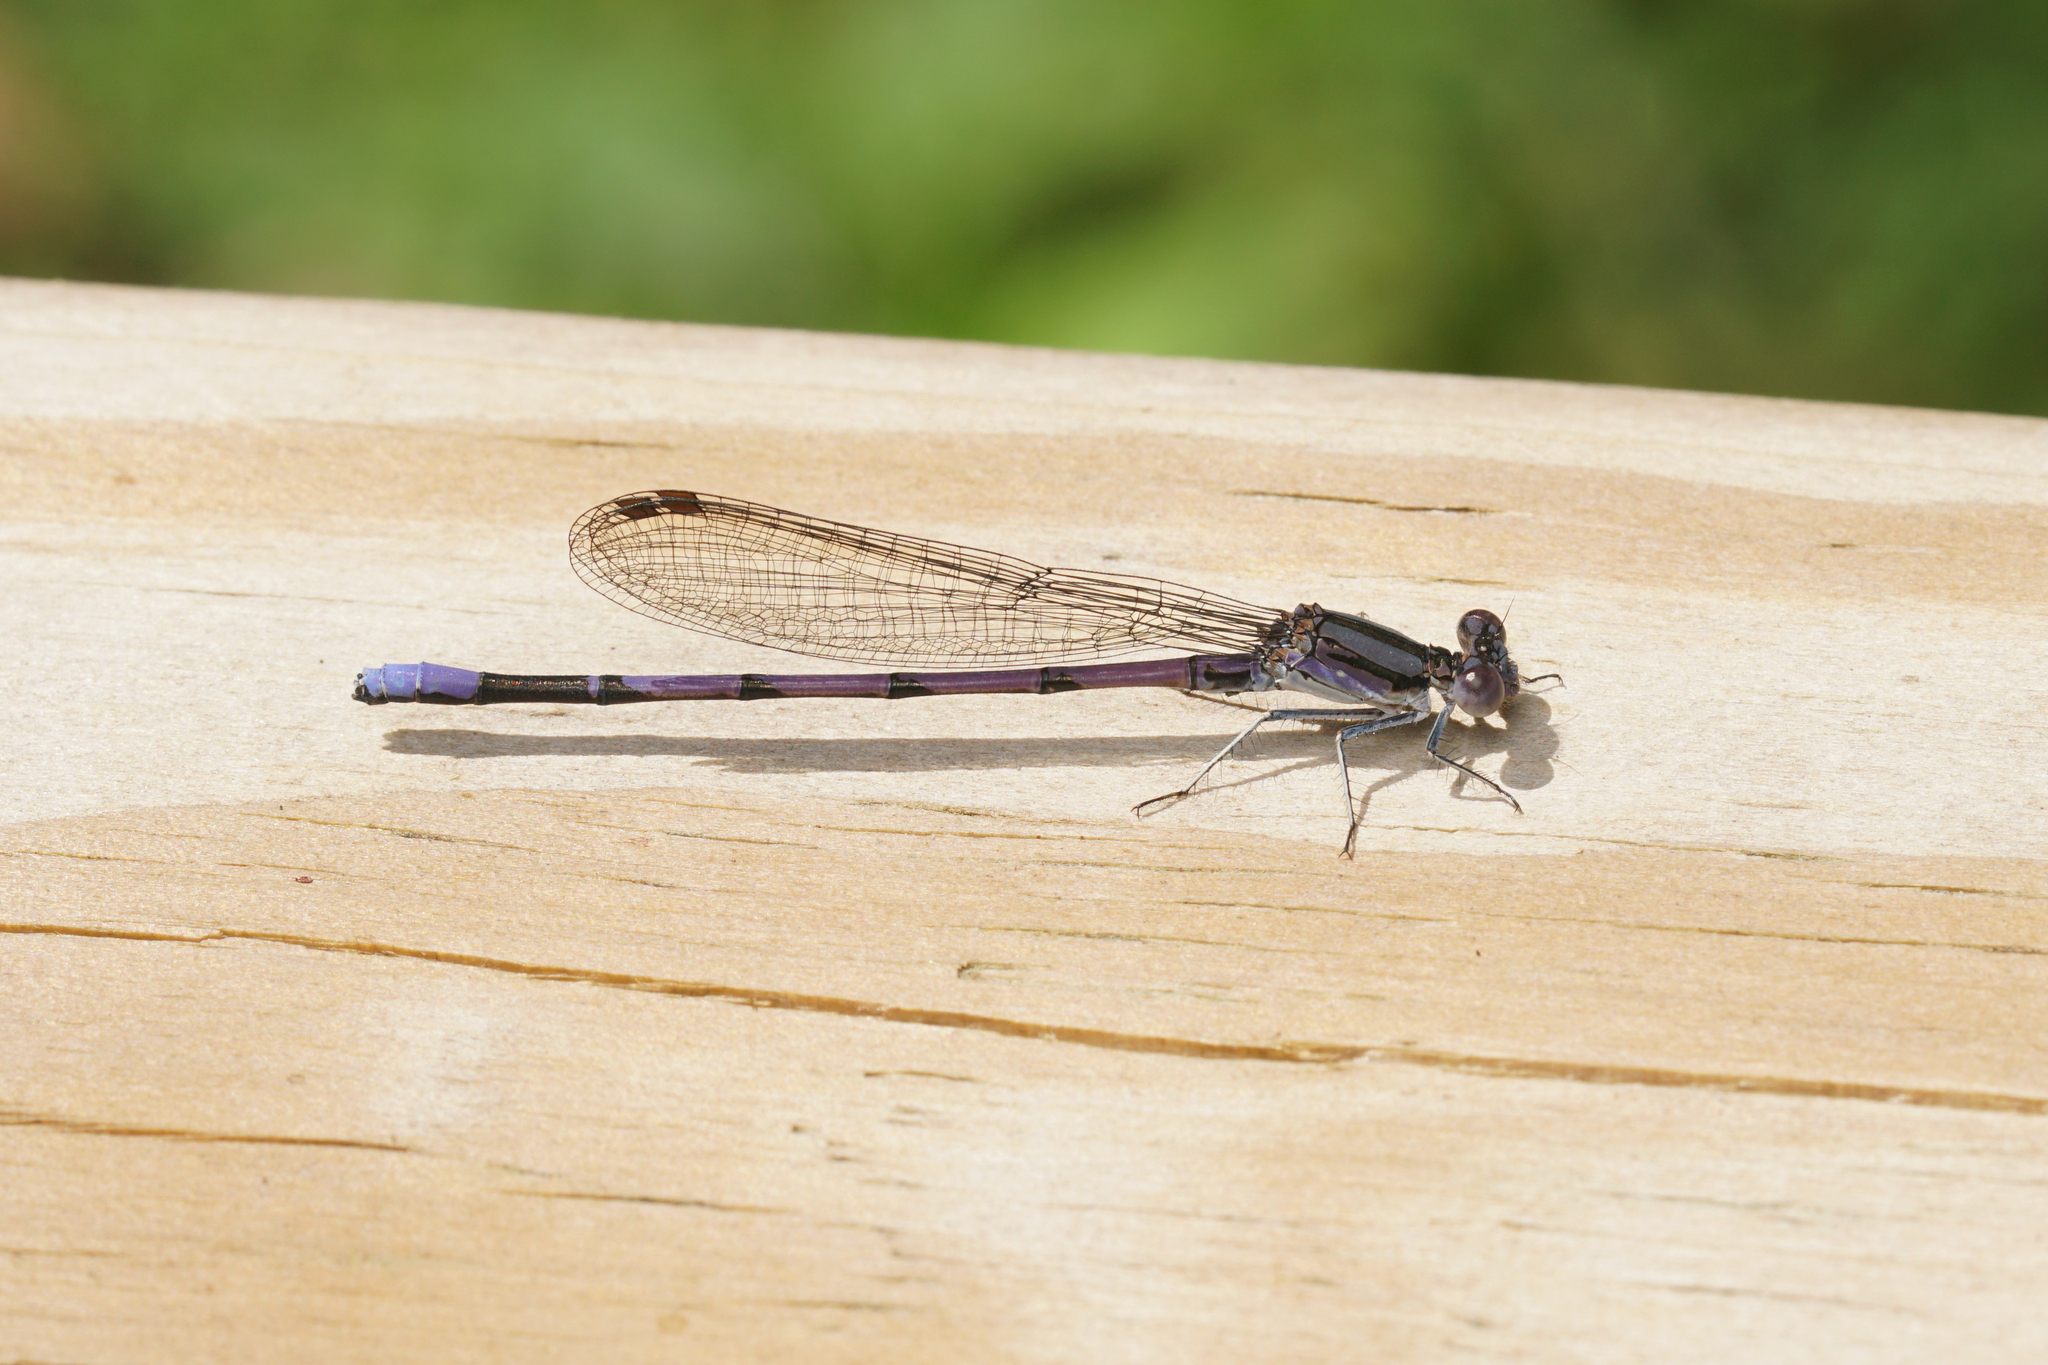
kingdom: Animalia
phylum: Arthropoda
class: Insecta
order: Odonata
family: Coenagrionidae
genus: Argia
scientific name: Argia fumipennis
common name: Variable dancer
